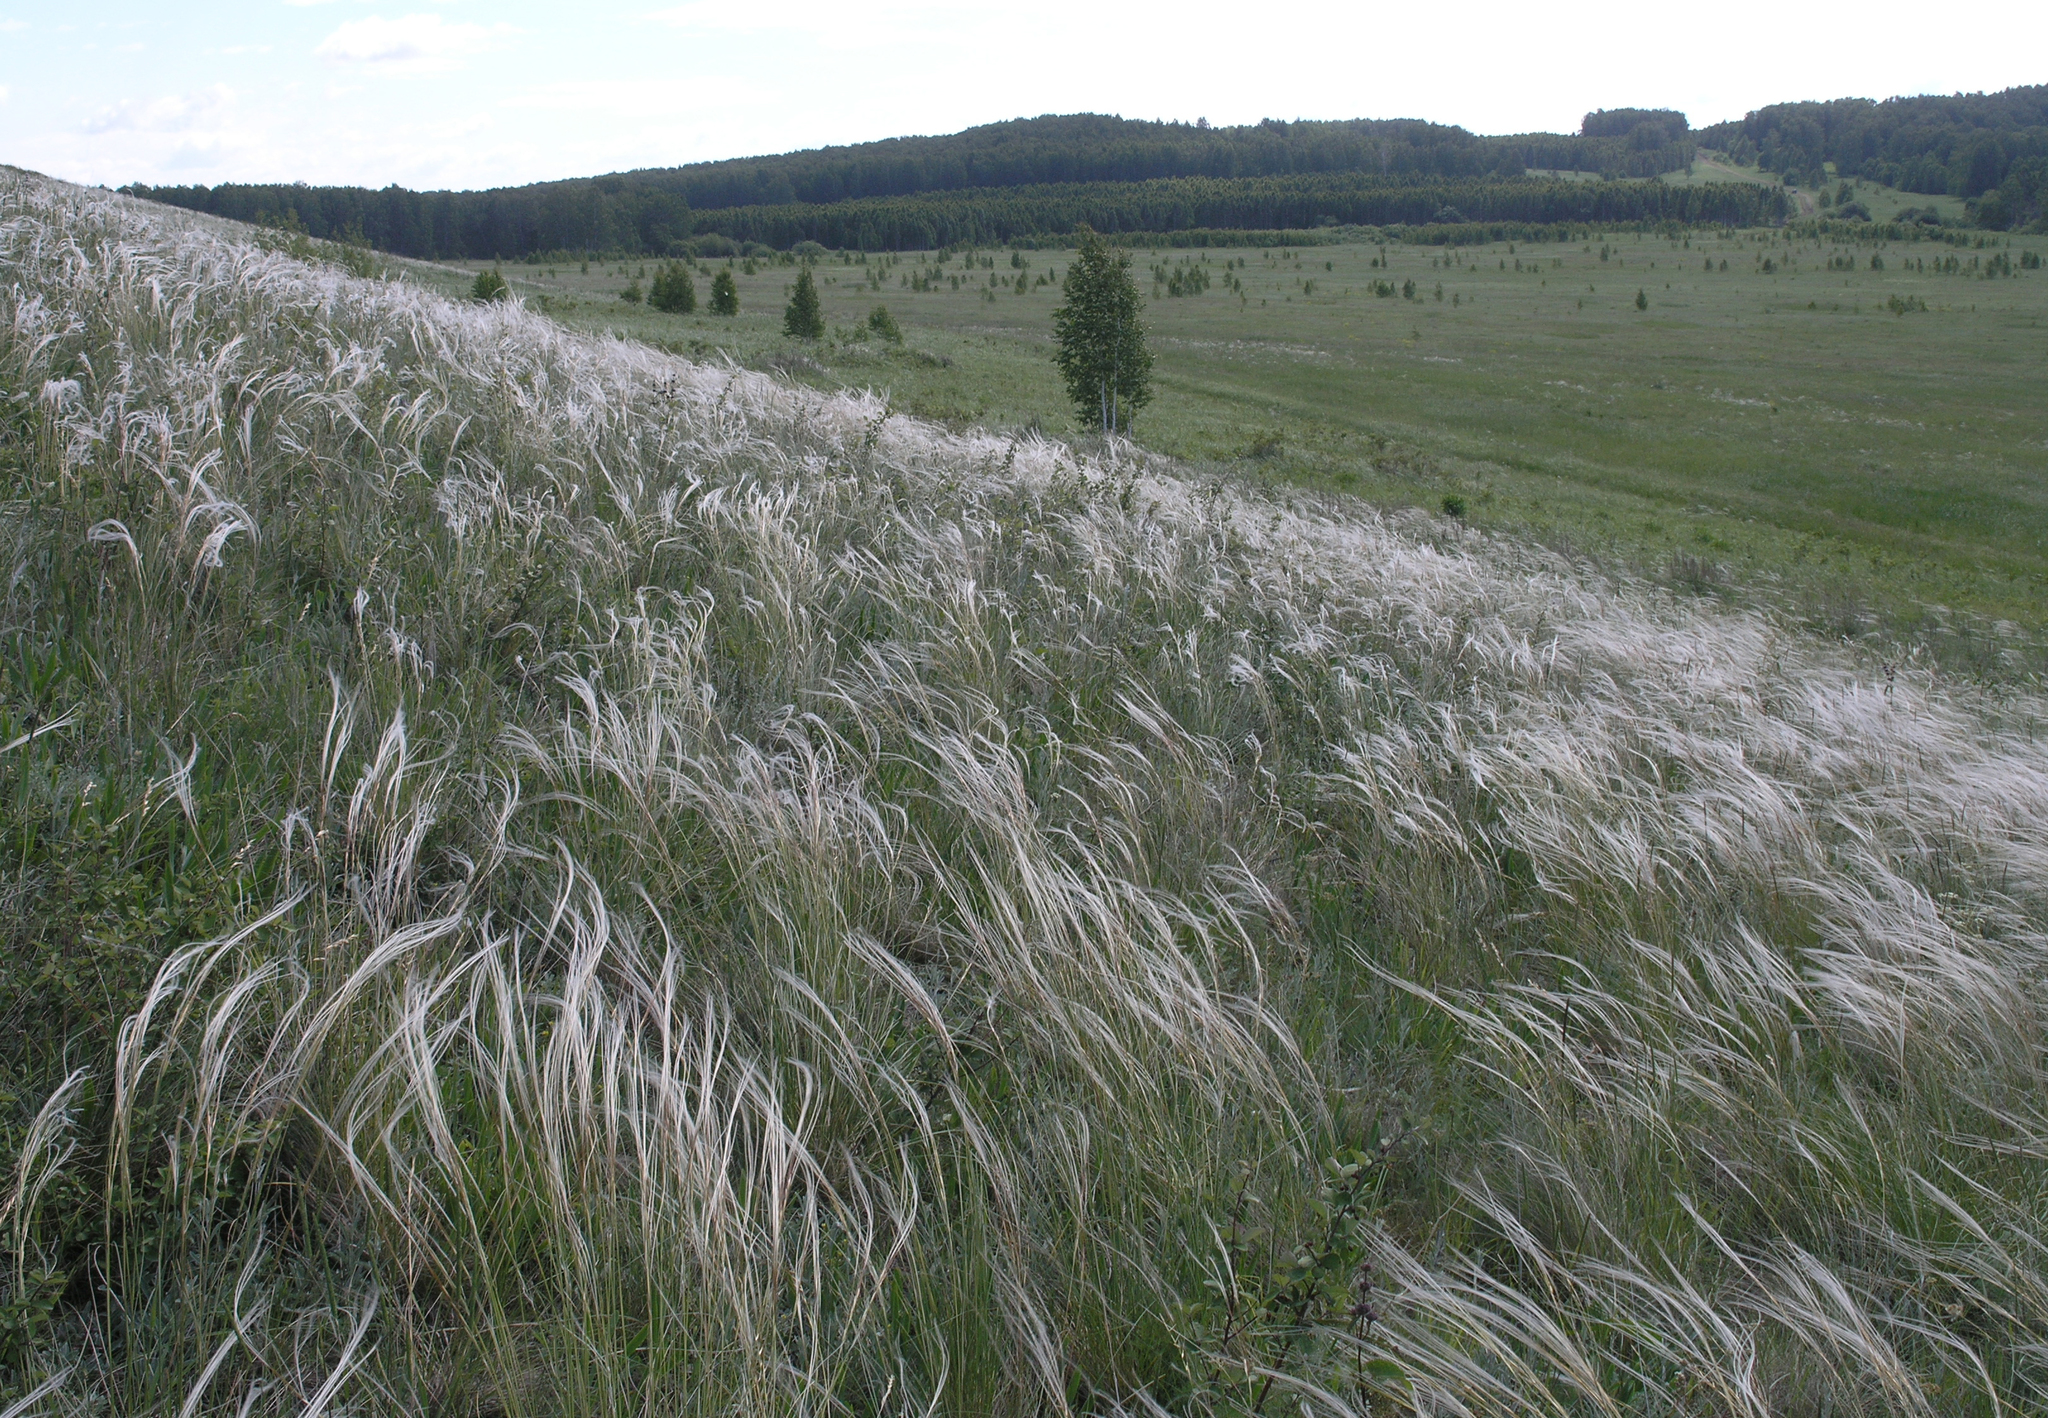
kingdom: Plantae
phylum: Tracheophyta
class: Liliopsida
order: Poales
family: Poaceae
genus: Stipa
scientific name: Stipa pennata
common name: European feather grass
